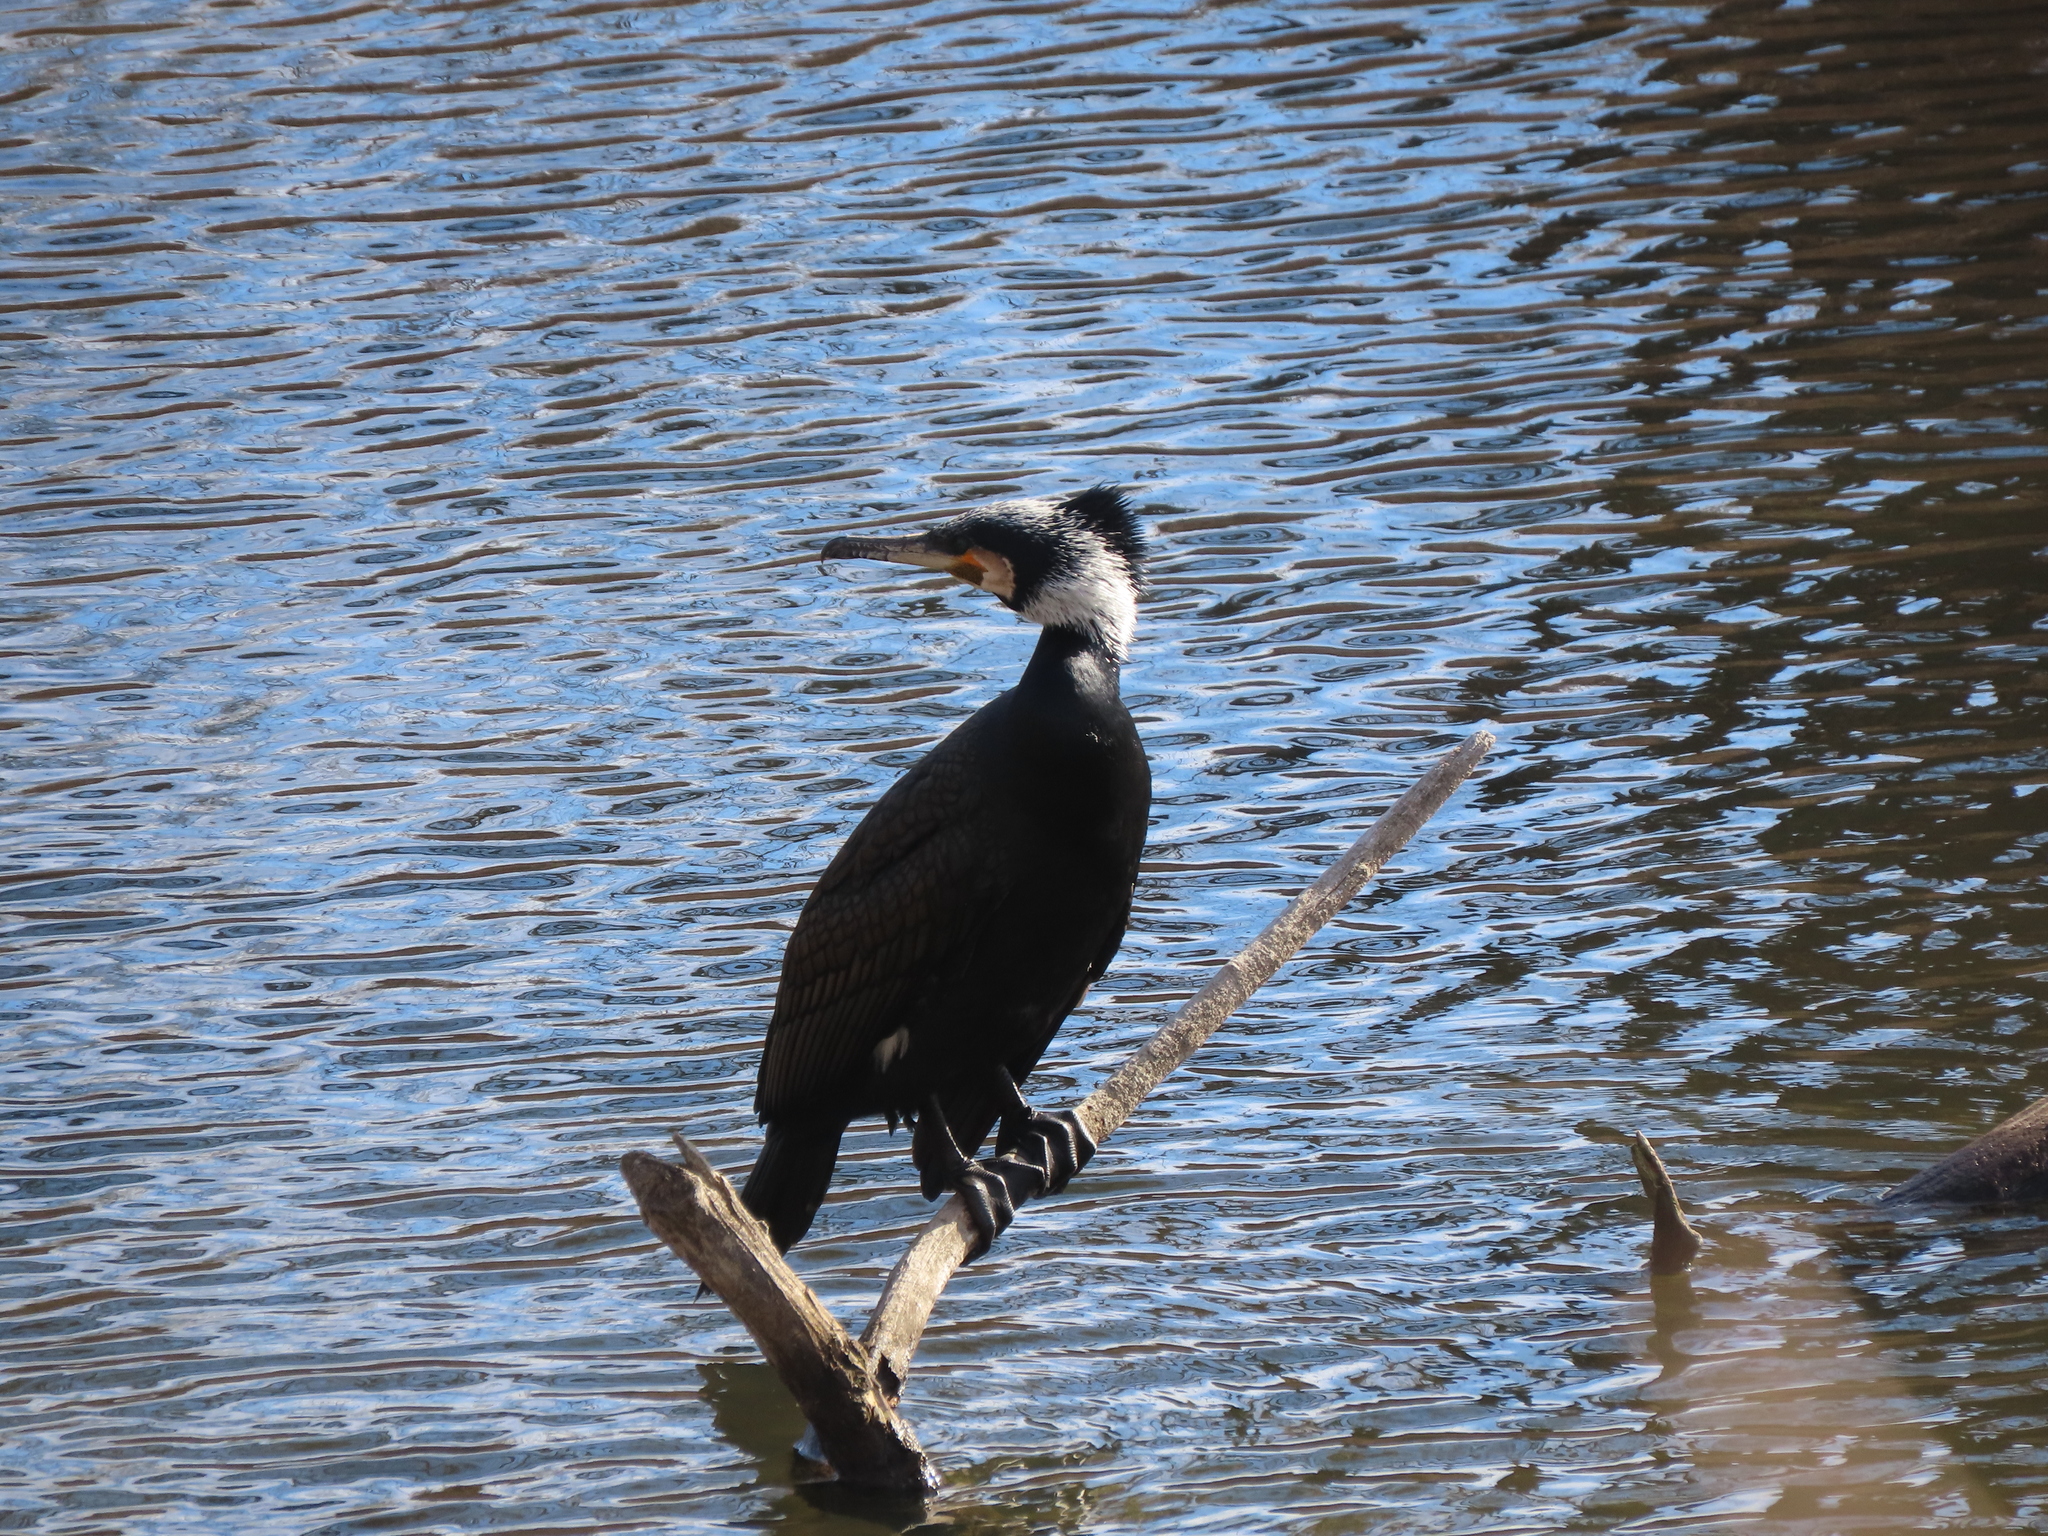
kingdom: Animalia
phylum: Chordata
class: Aves
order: Suliformes
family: Phalacrocoracidae
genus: Phalacrocorax
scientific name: Phalacrocorax carbo
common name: Great cormorant
